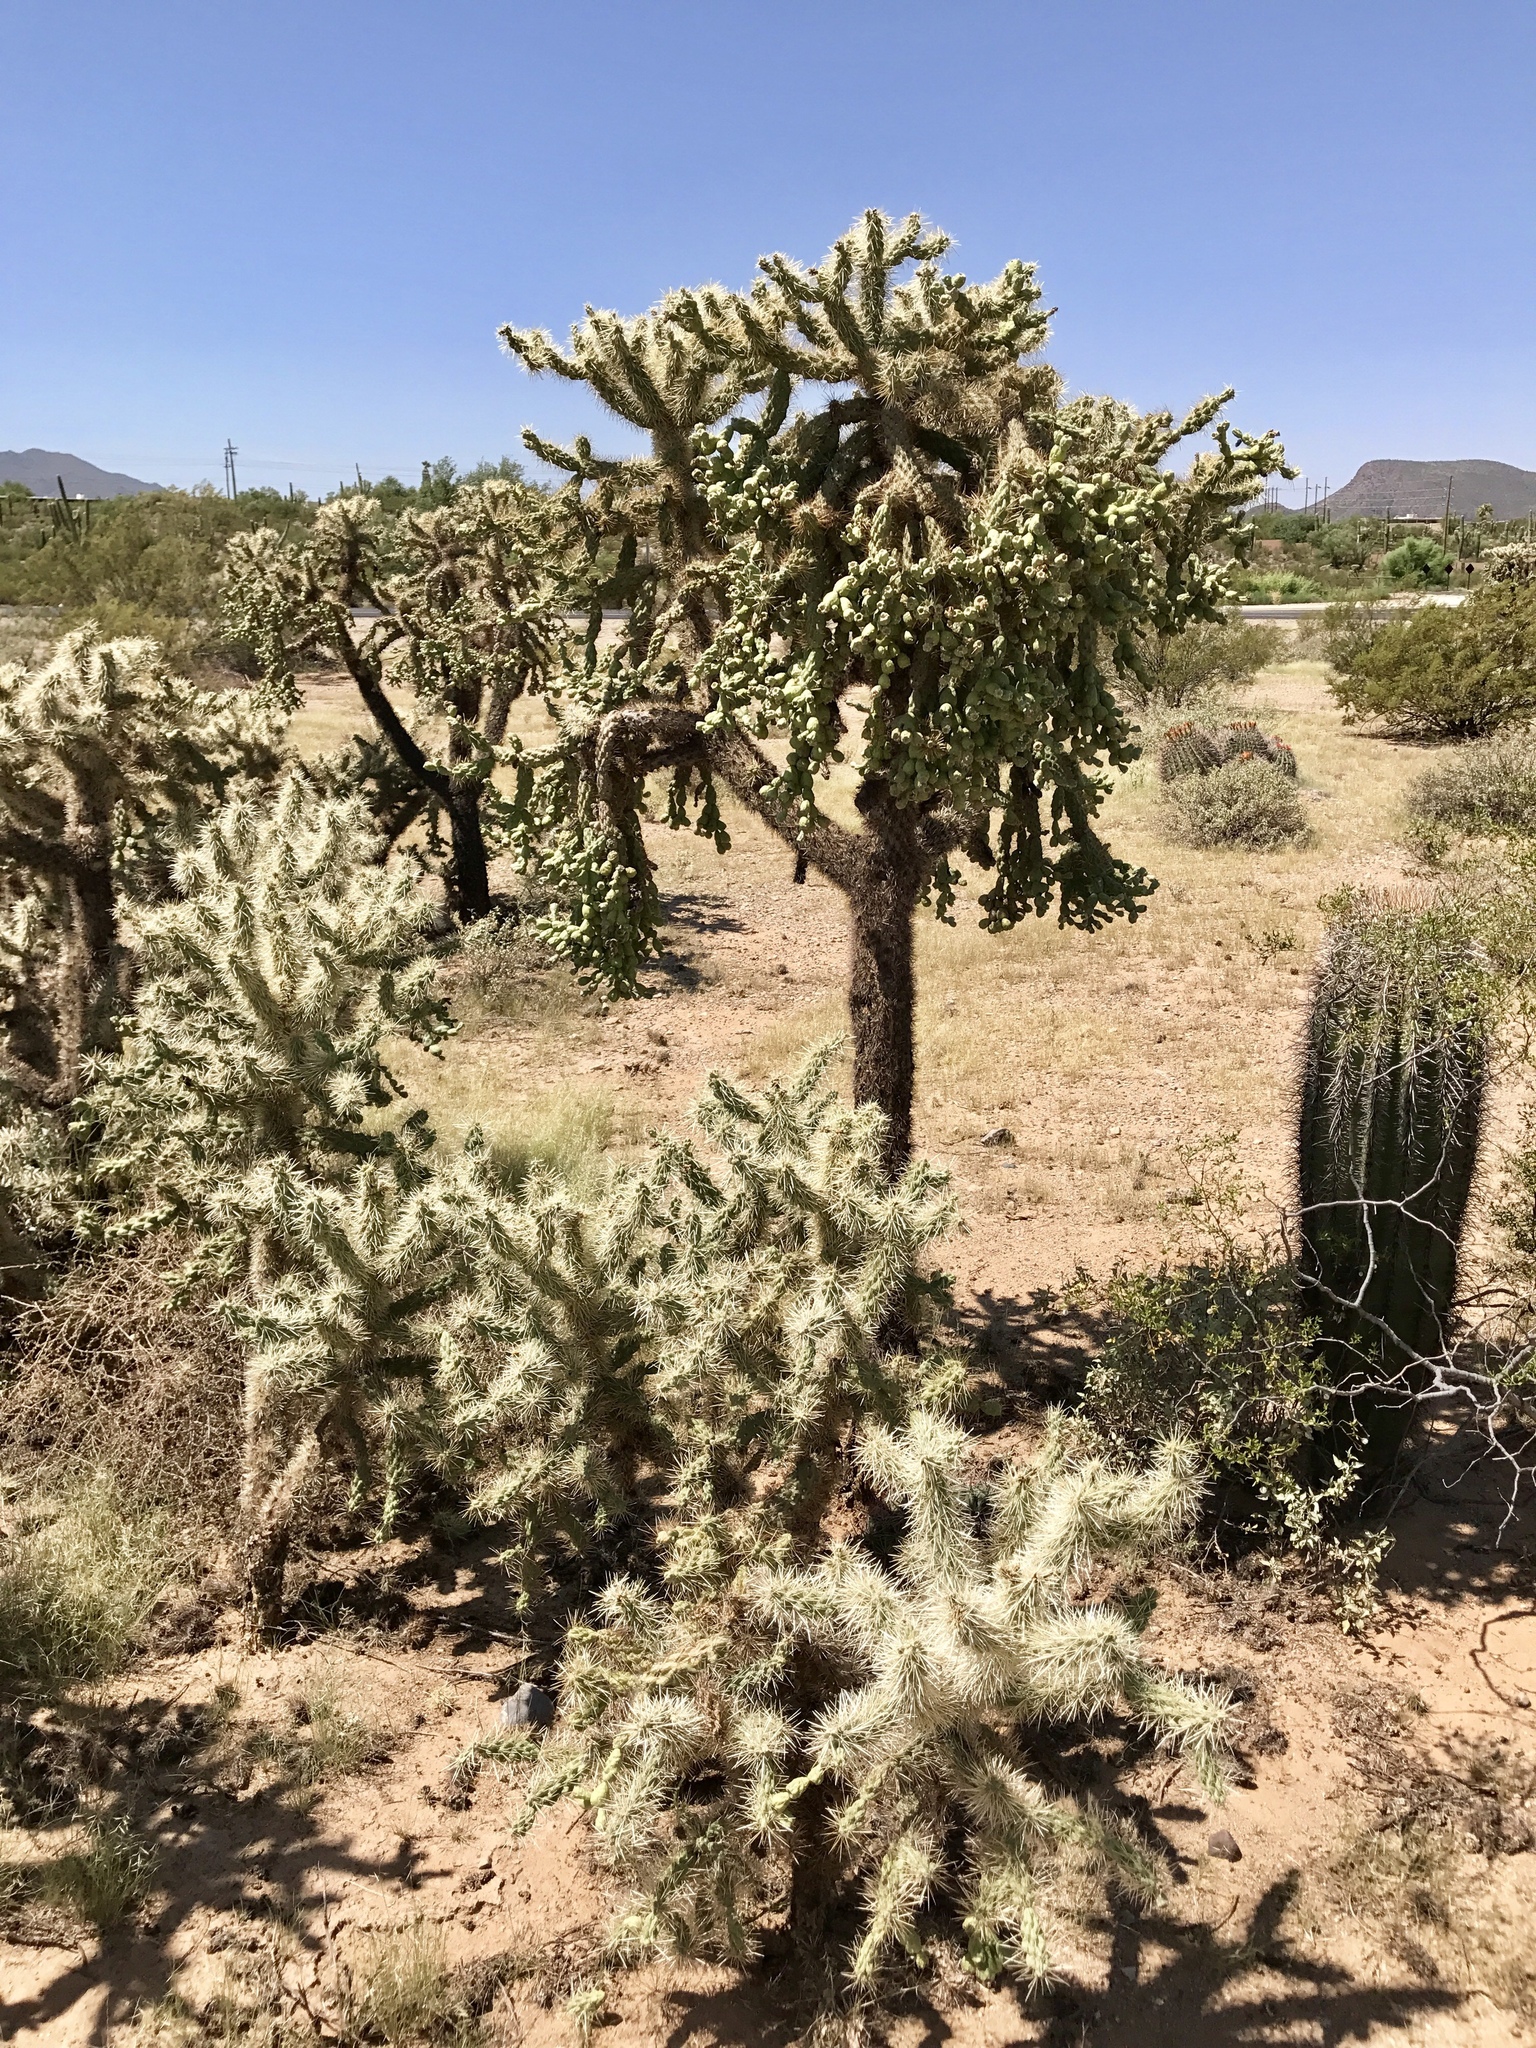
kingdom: Plantae
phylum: Tracheophyta
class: Magnoliopsida
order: Caryophyllales
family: Cactaceae
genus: Cylindropuntia
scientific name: Cylindropuntia fulgida
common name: Jumping cholla
